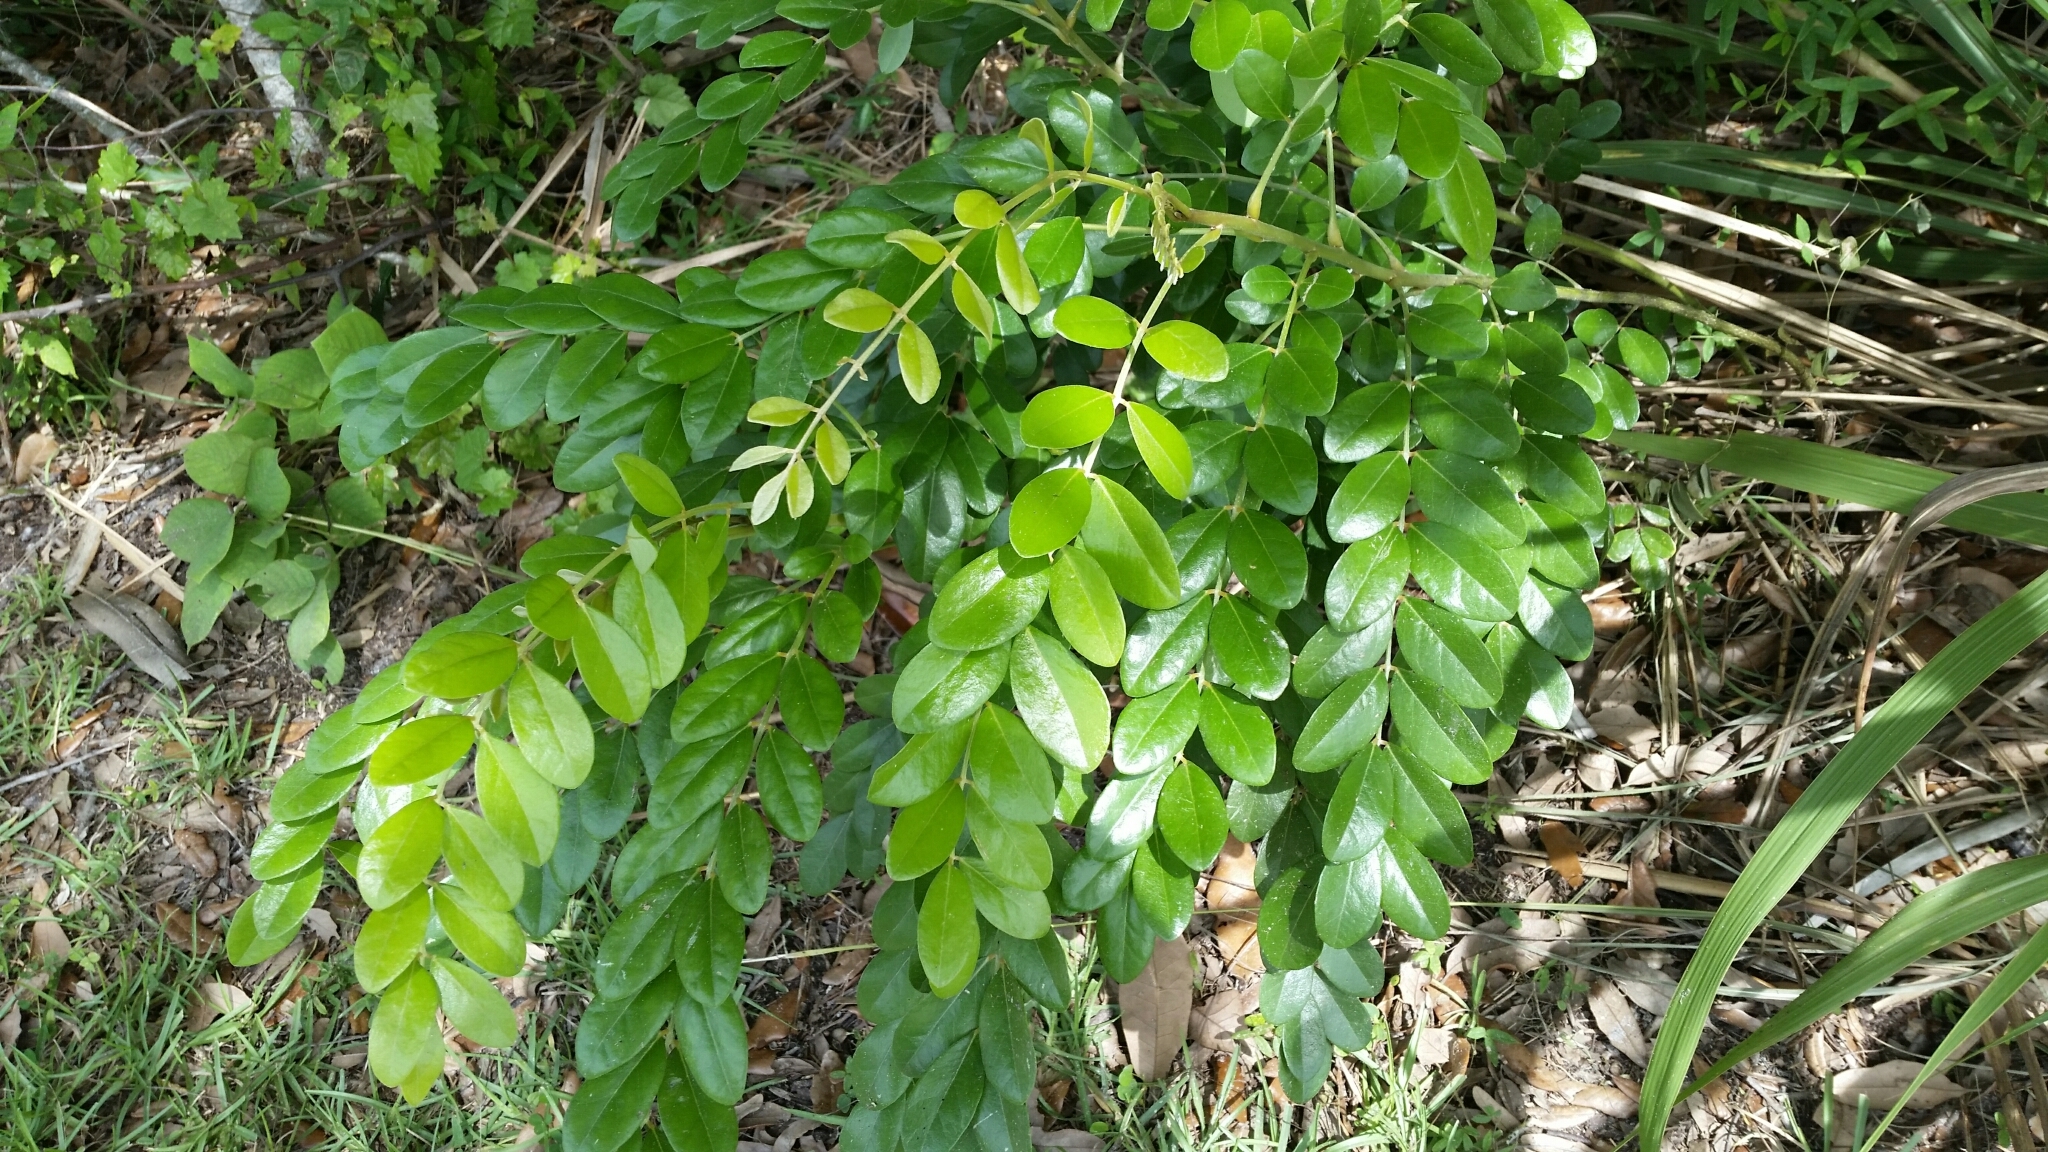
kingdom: Plantae
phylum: Tracheophyta
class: Magnoliopsida
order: Fabales
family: Fabaceae
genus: Sophora
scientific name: Sophora tomentosa
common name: Yellow necklacepod
